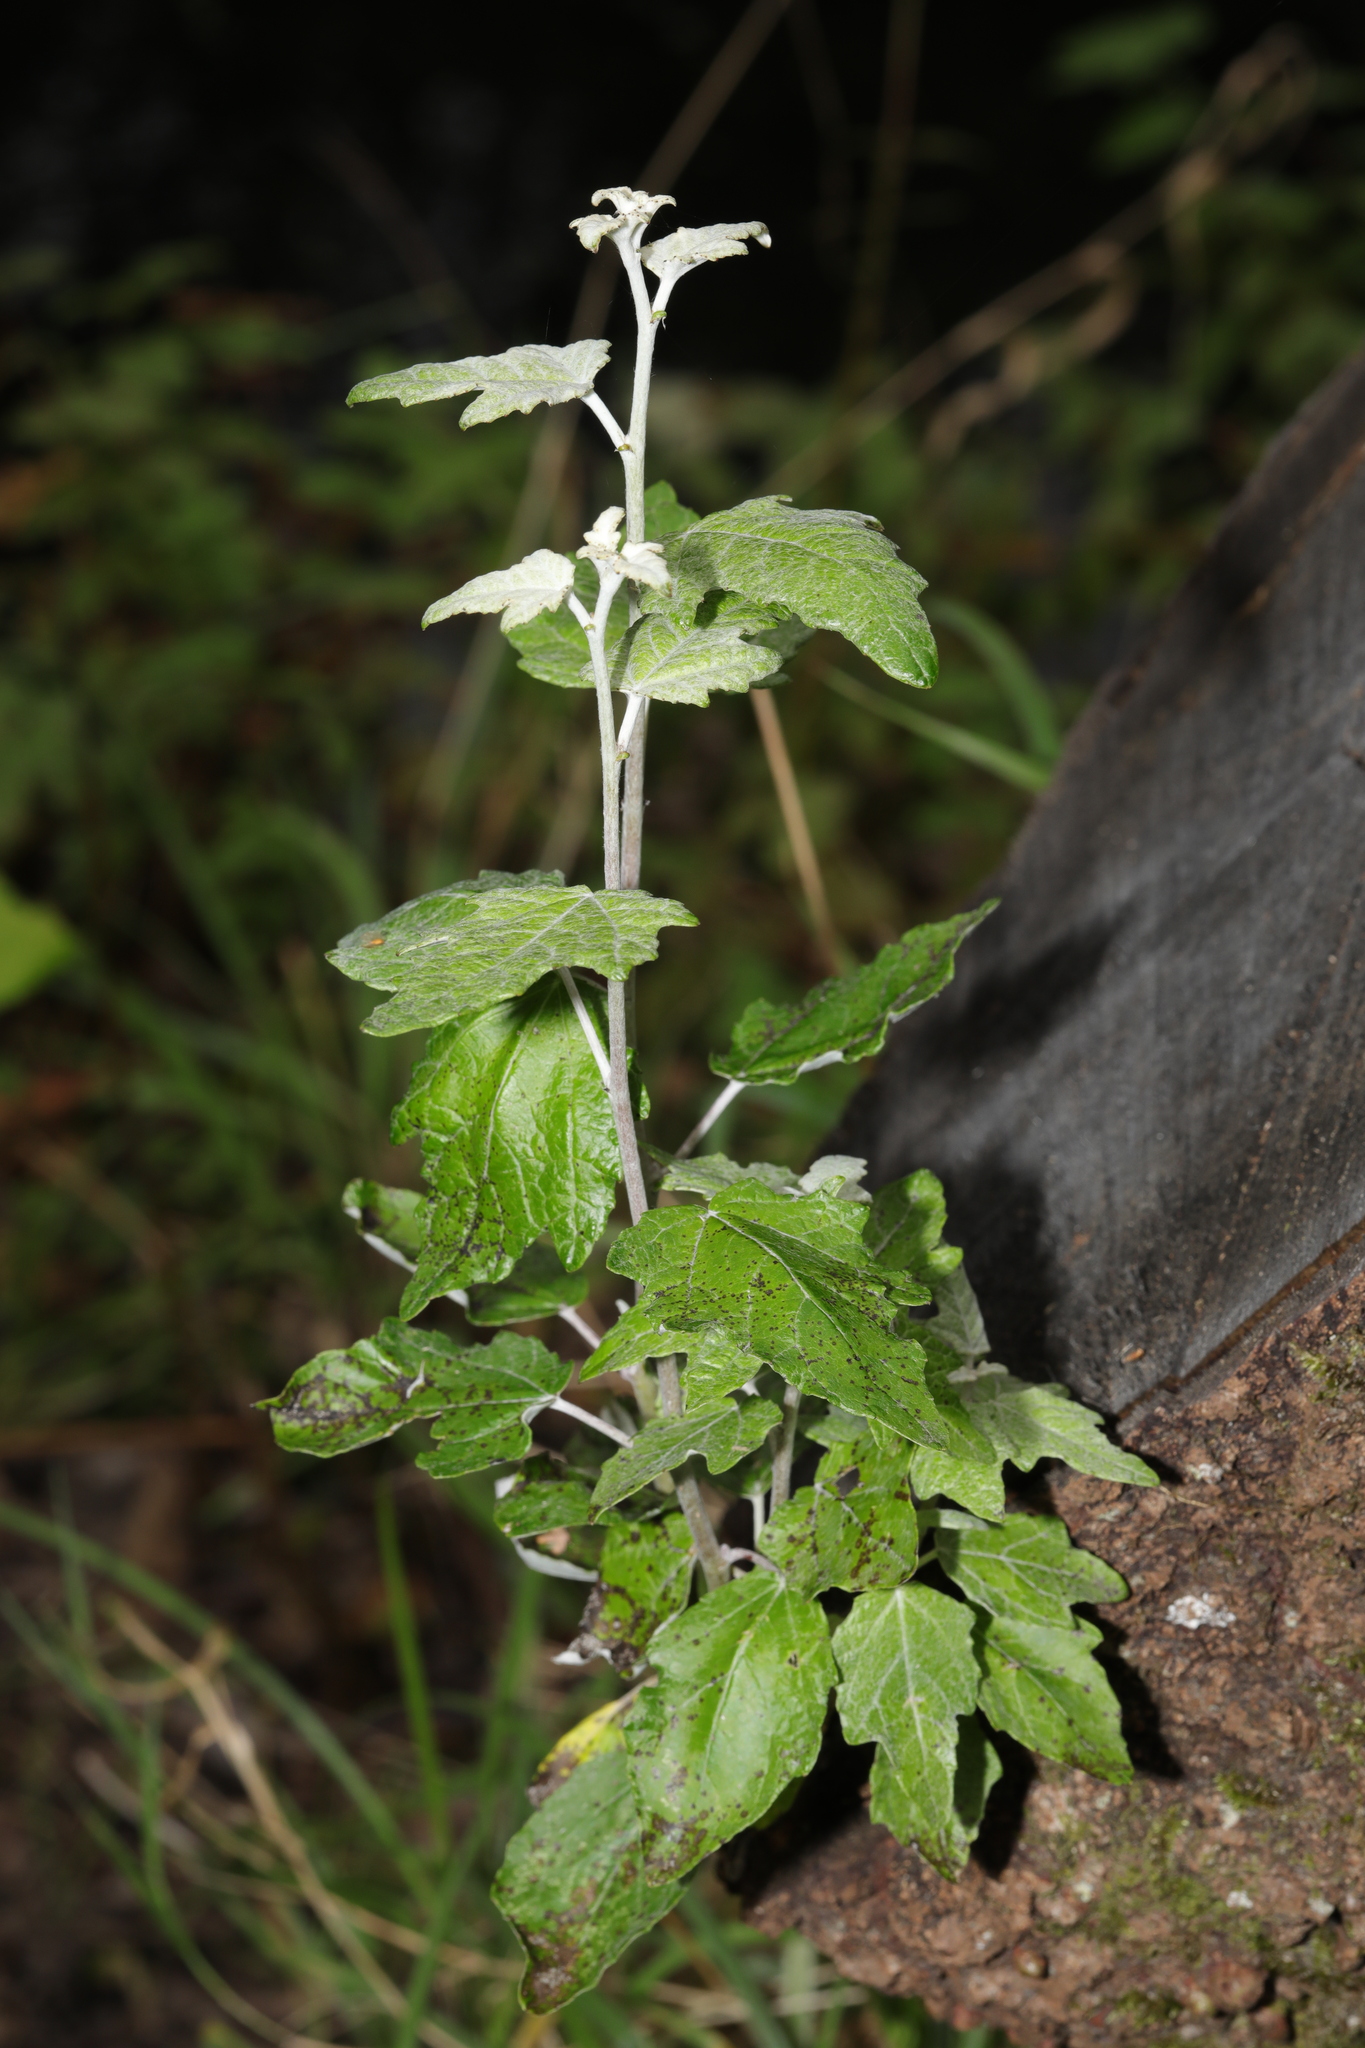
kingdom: Plantae
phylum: Tracheophyta
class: Magnoliopsida
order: Malpighiales
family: Salicaceae
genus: Populus
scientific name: Populus alba
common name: White poplar
